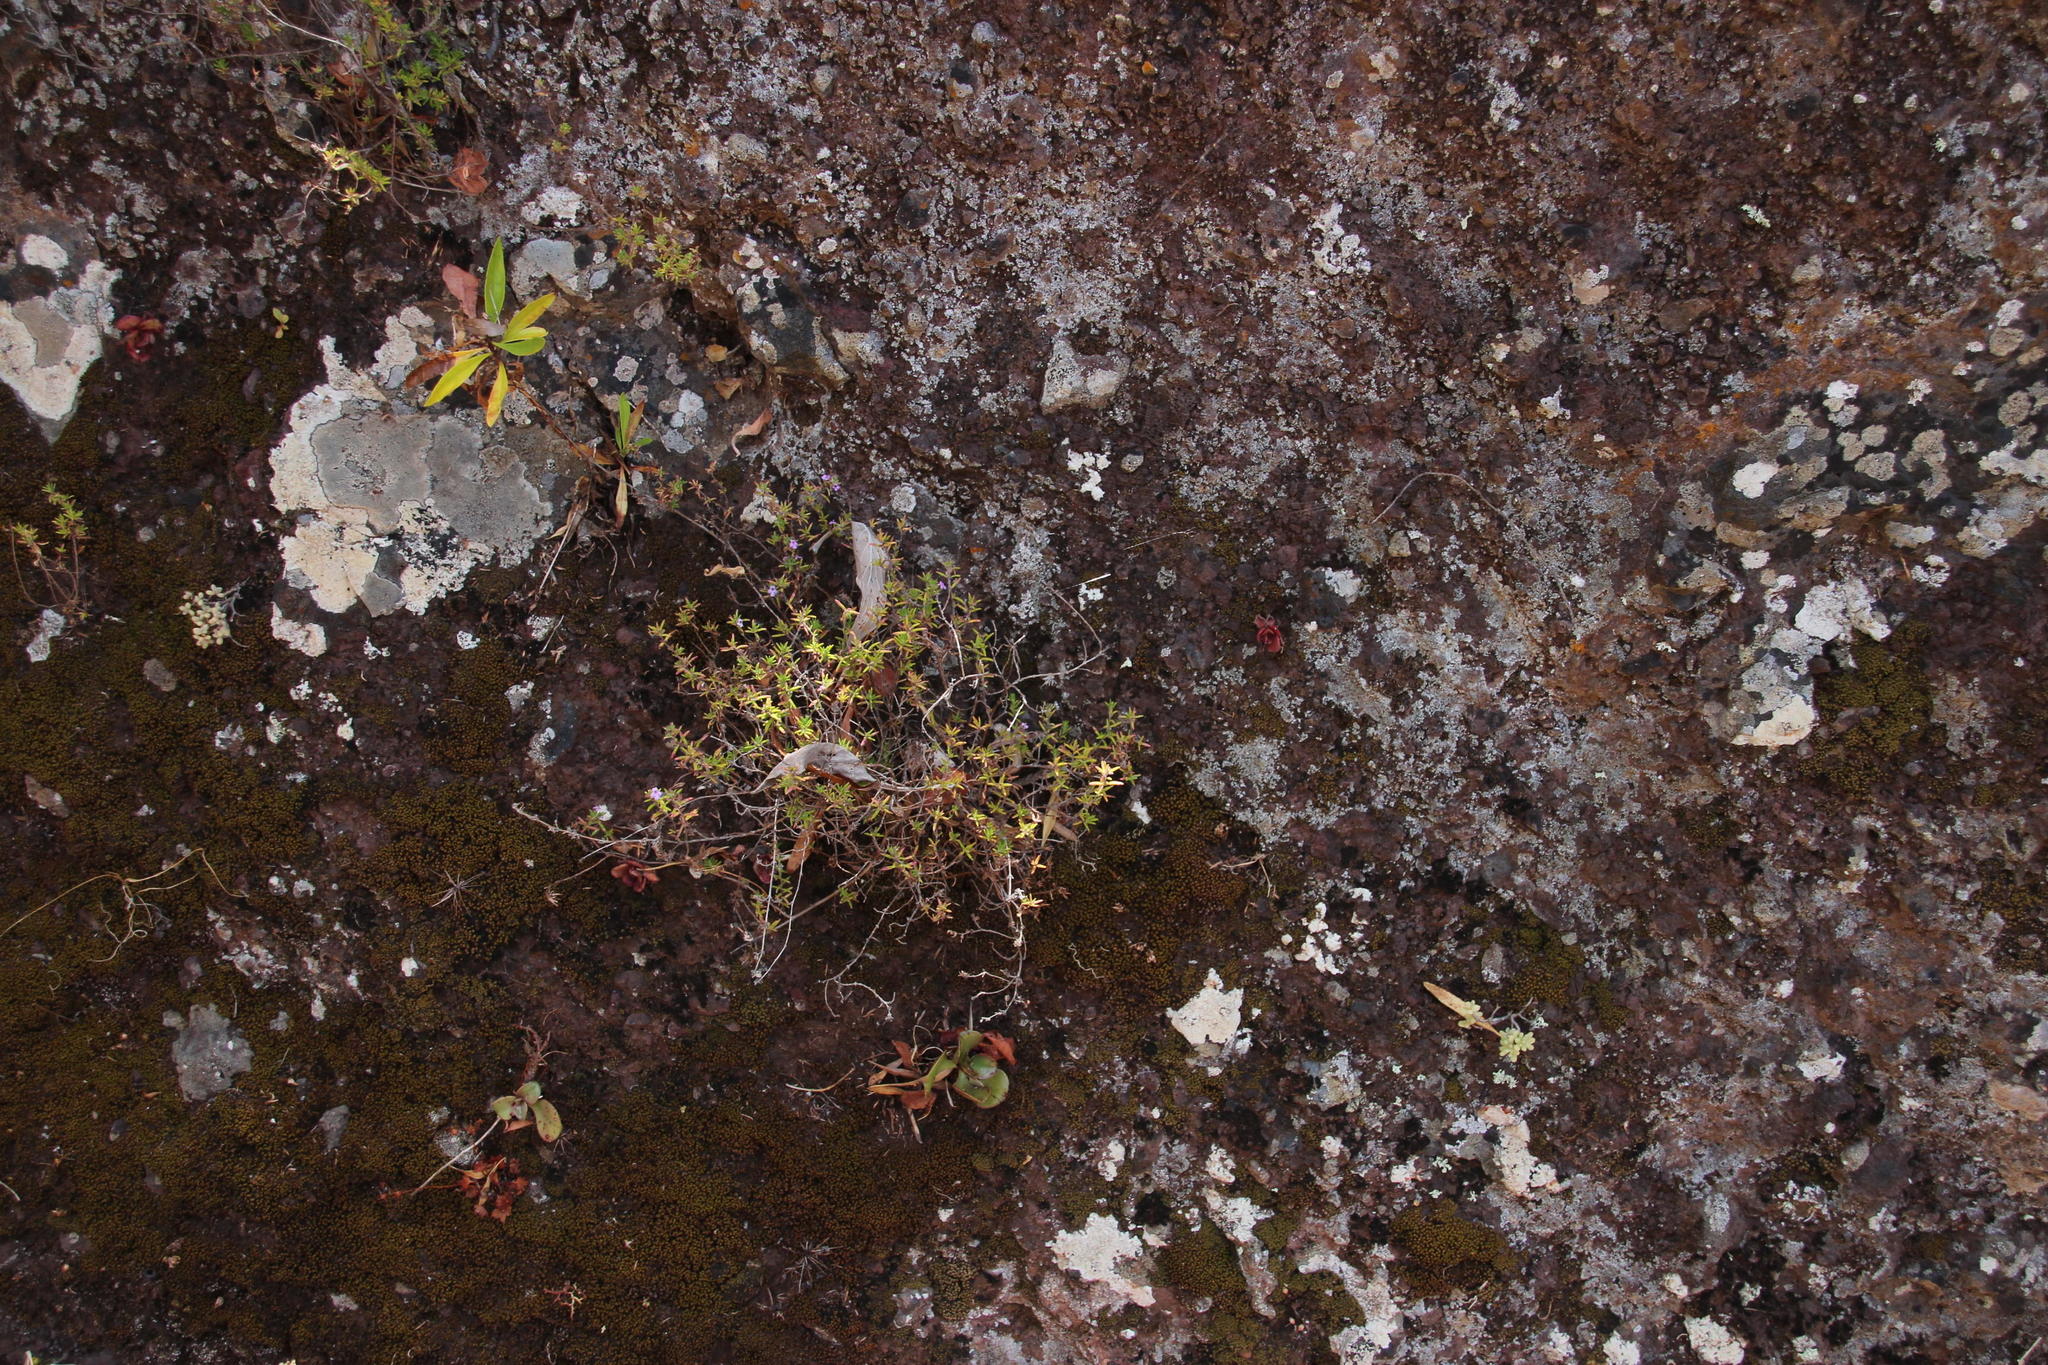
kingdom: Plantae
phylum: Tracheophyta
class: Magnoliopsida
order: Lamiales
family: Lamiaceae
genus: Micromeria
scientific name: Micromeria maderensis
